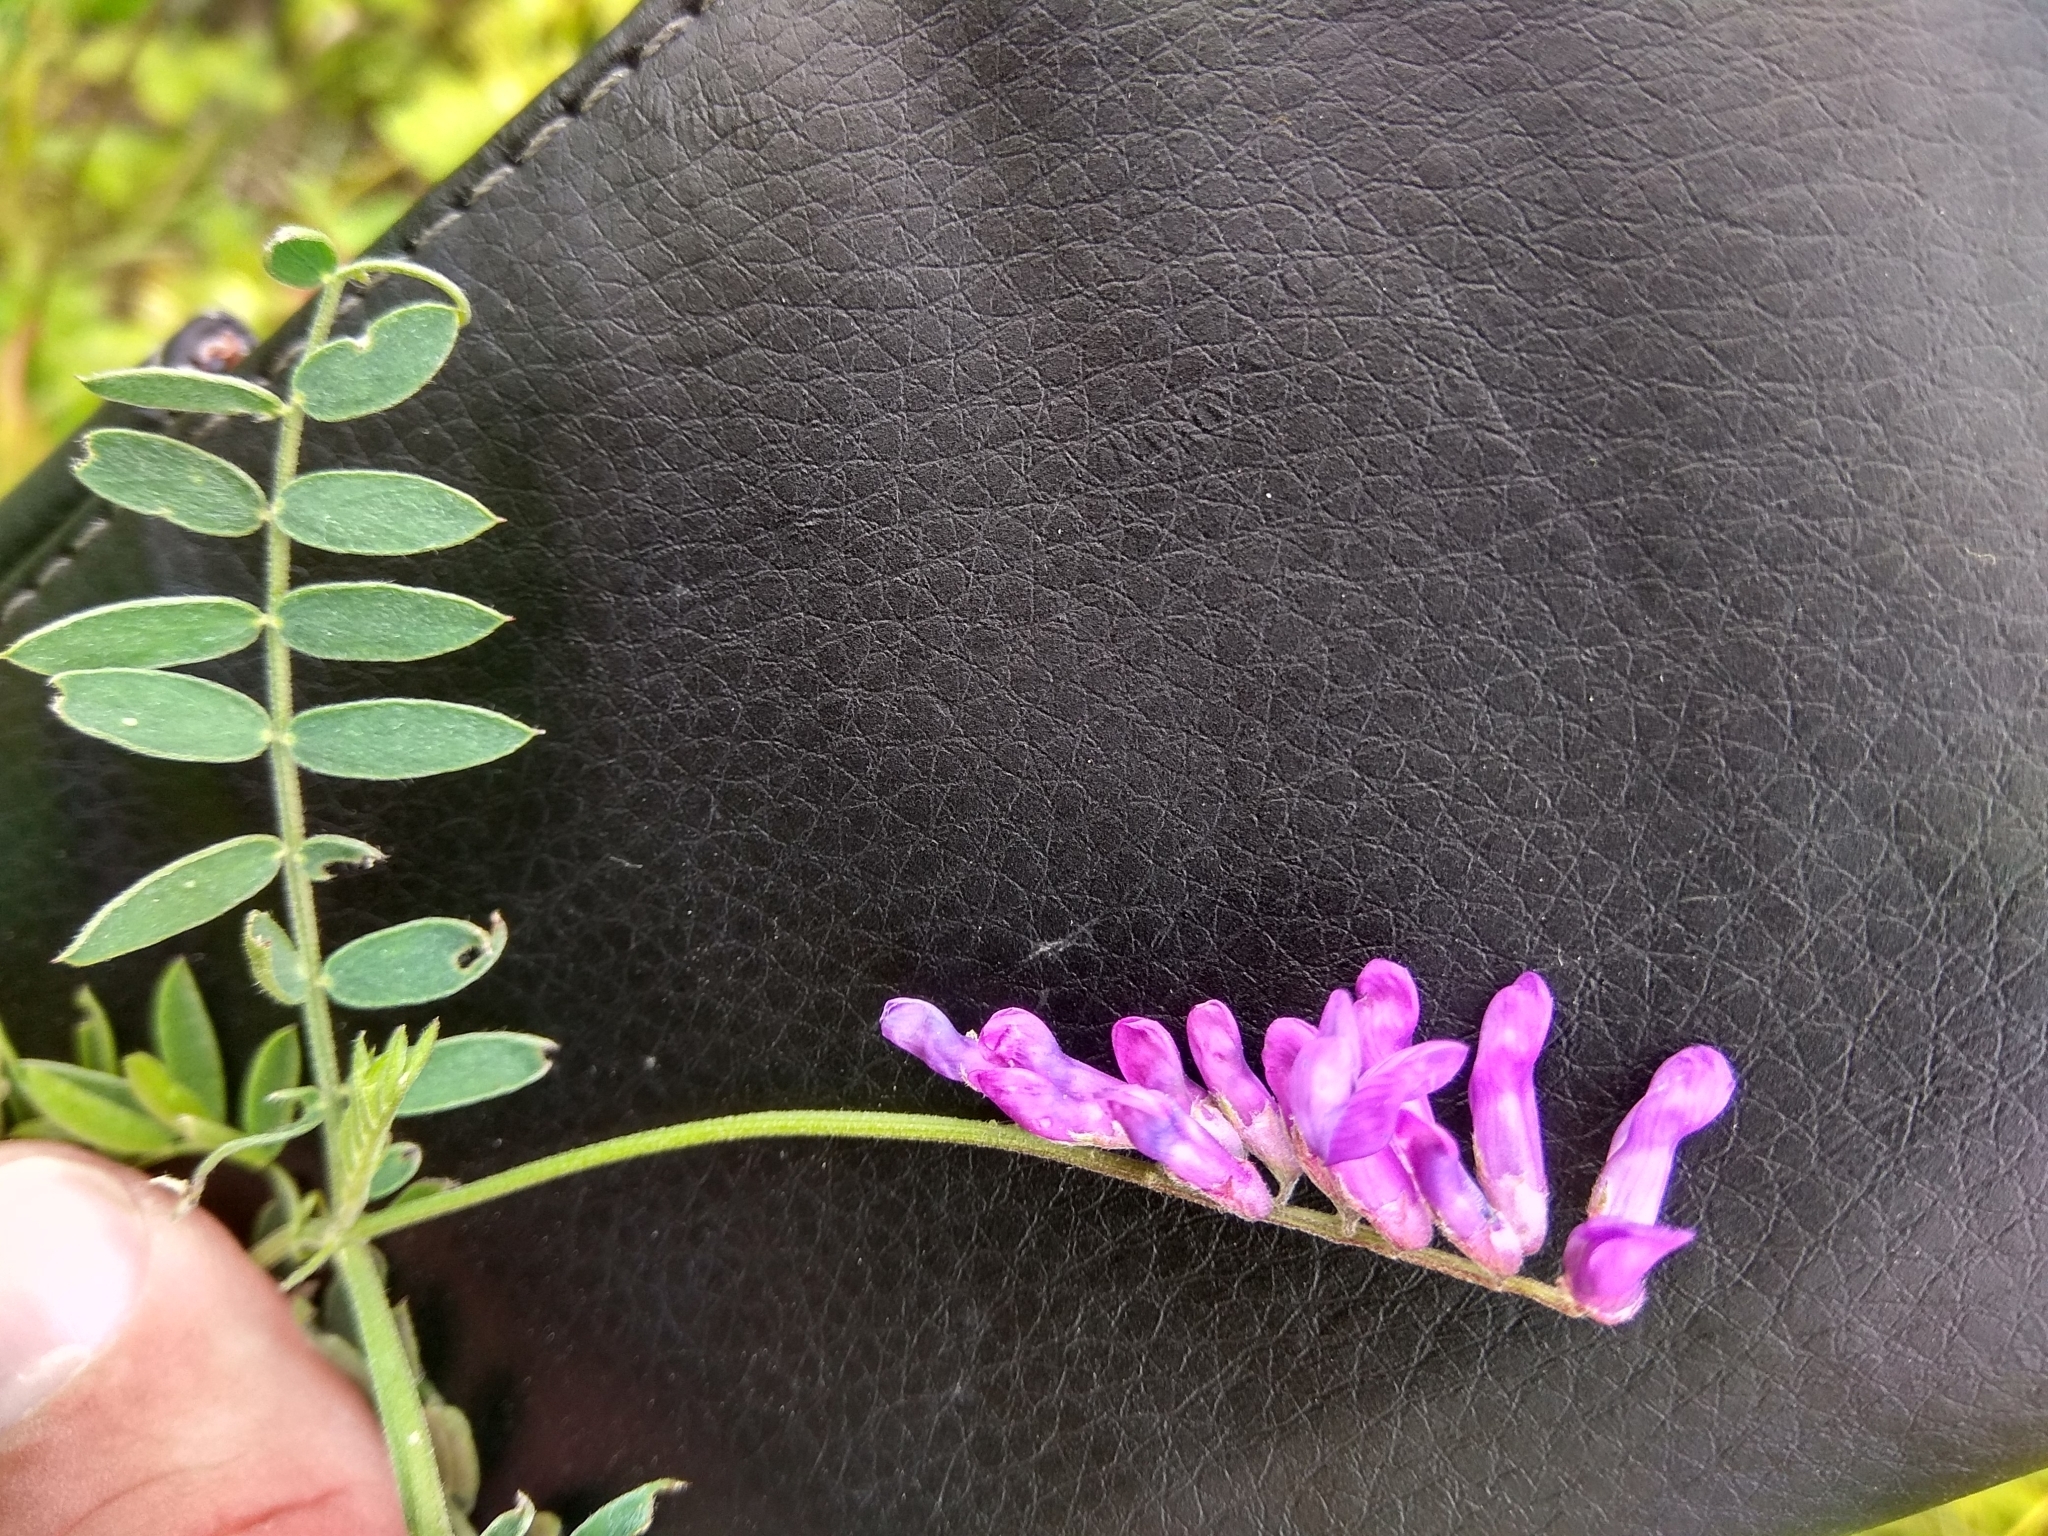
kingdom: Plantae
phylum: Tracheophyta
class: Magnoliopsida
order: Fabales
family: Fabaceae
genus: Vicia
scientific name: Vicia cracca
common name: Bird vetch
